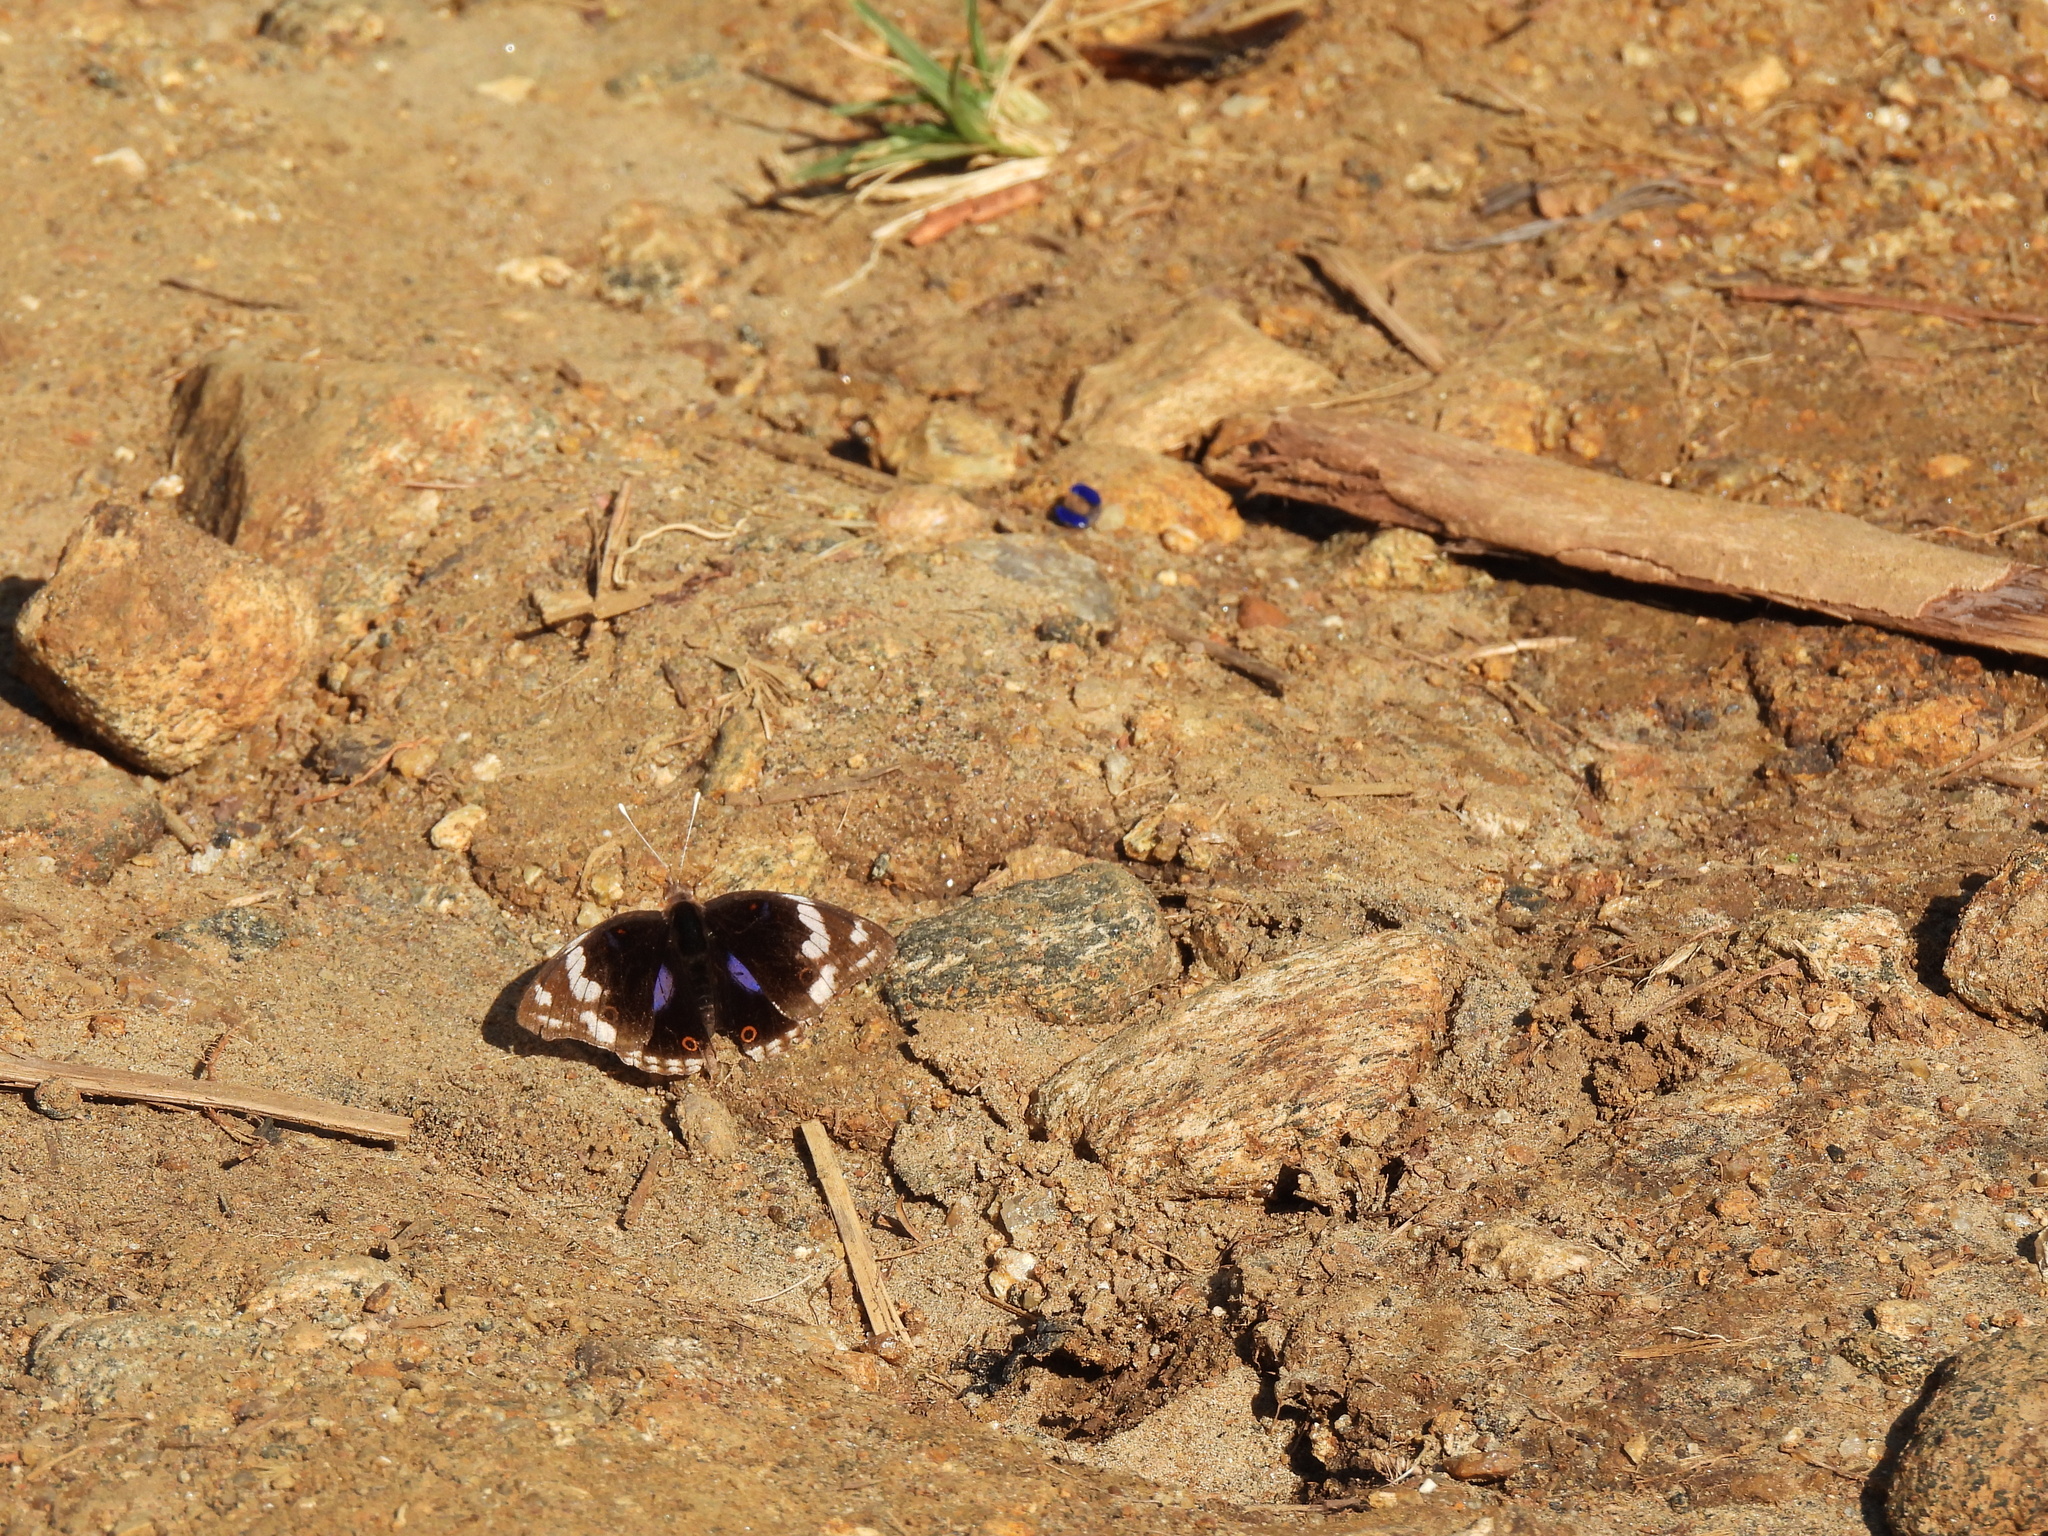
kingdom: Animalia
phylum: Arthropoda
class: Insecta
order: Lepidoptera
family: Nymphalidae
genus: Junonia
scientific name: Junonia oenone
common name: Dark blue pansy
